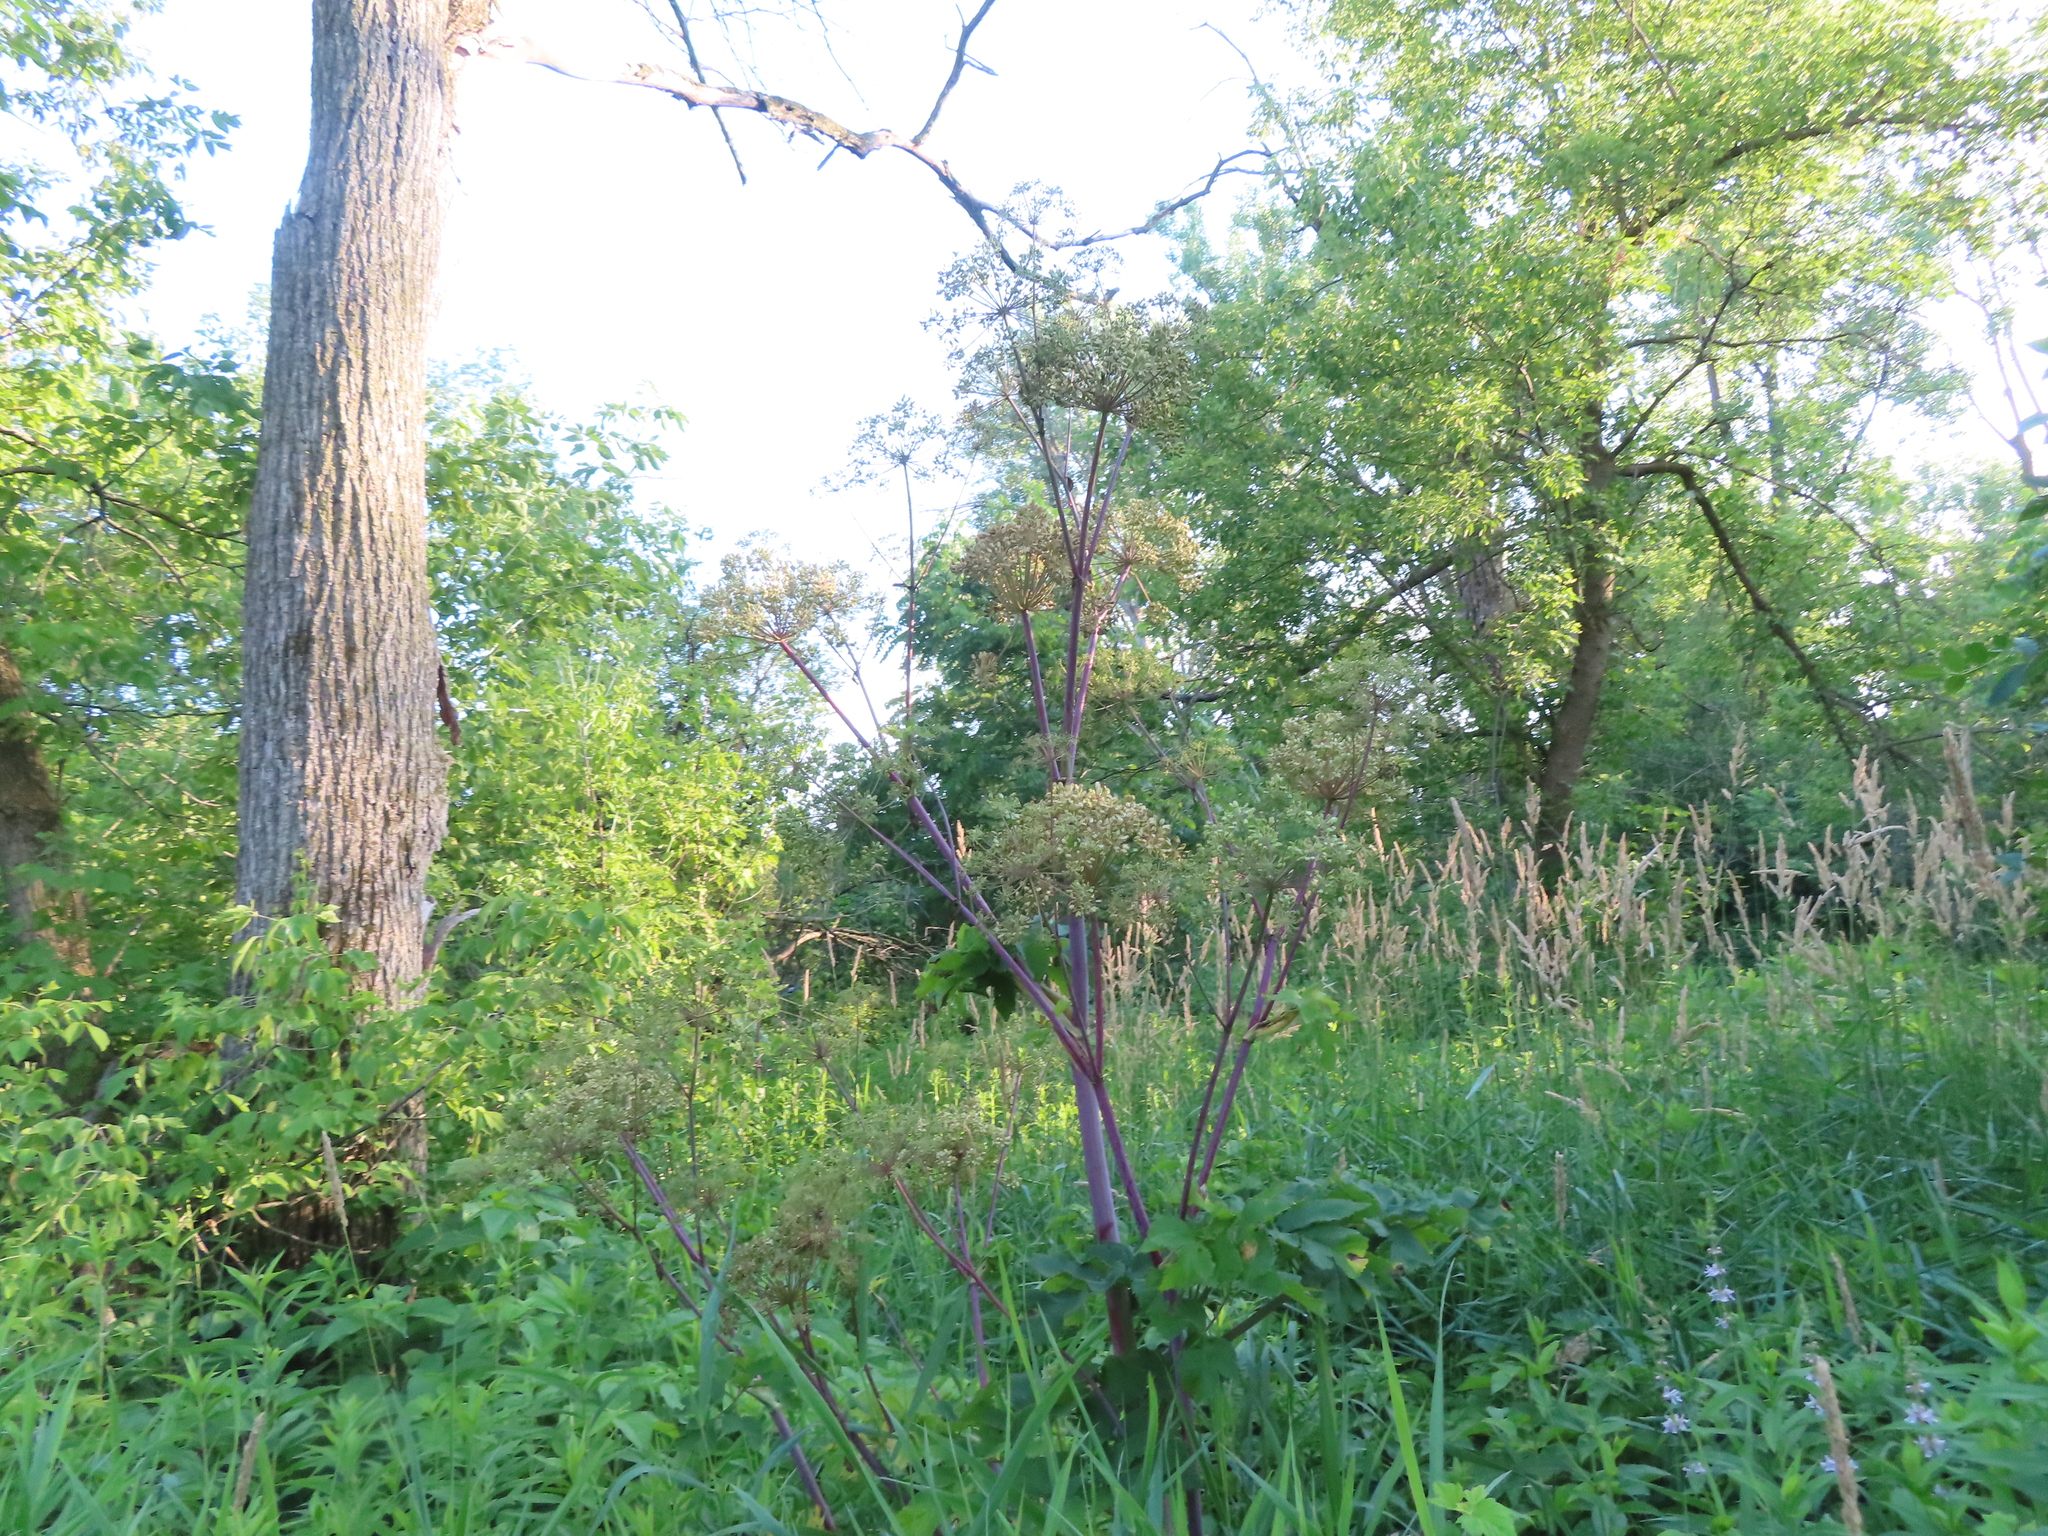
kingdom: Plantae
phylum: Tracheophyta
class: Magnoliopsida
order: Apiales
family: Apiaceae
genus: Angelica
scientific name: Angelica atropurpurea
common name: Great angelica
